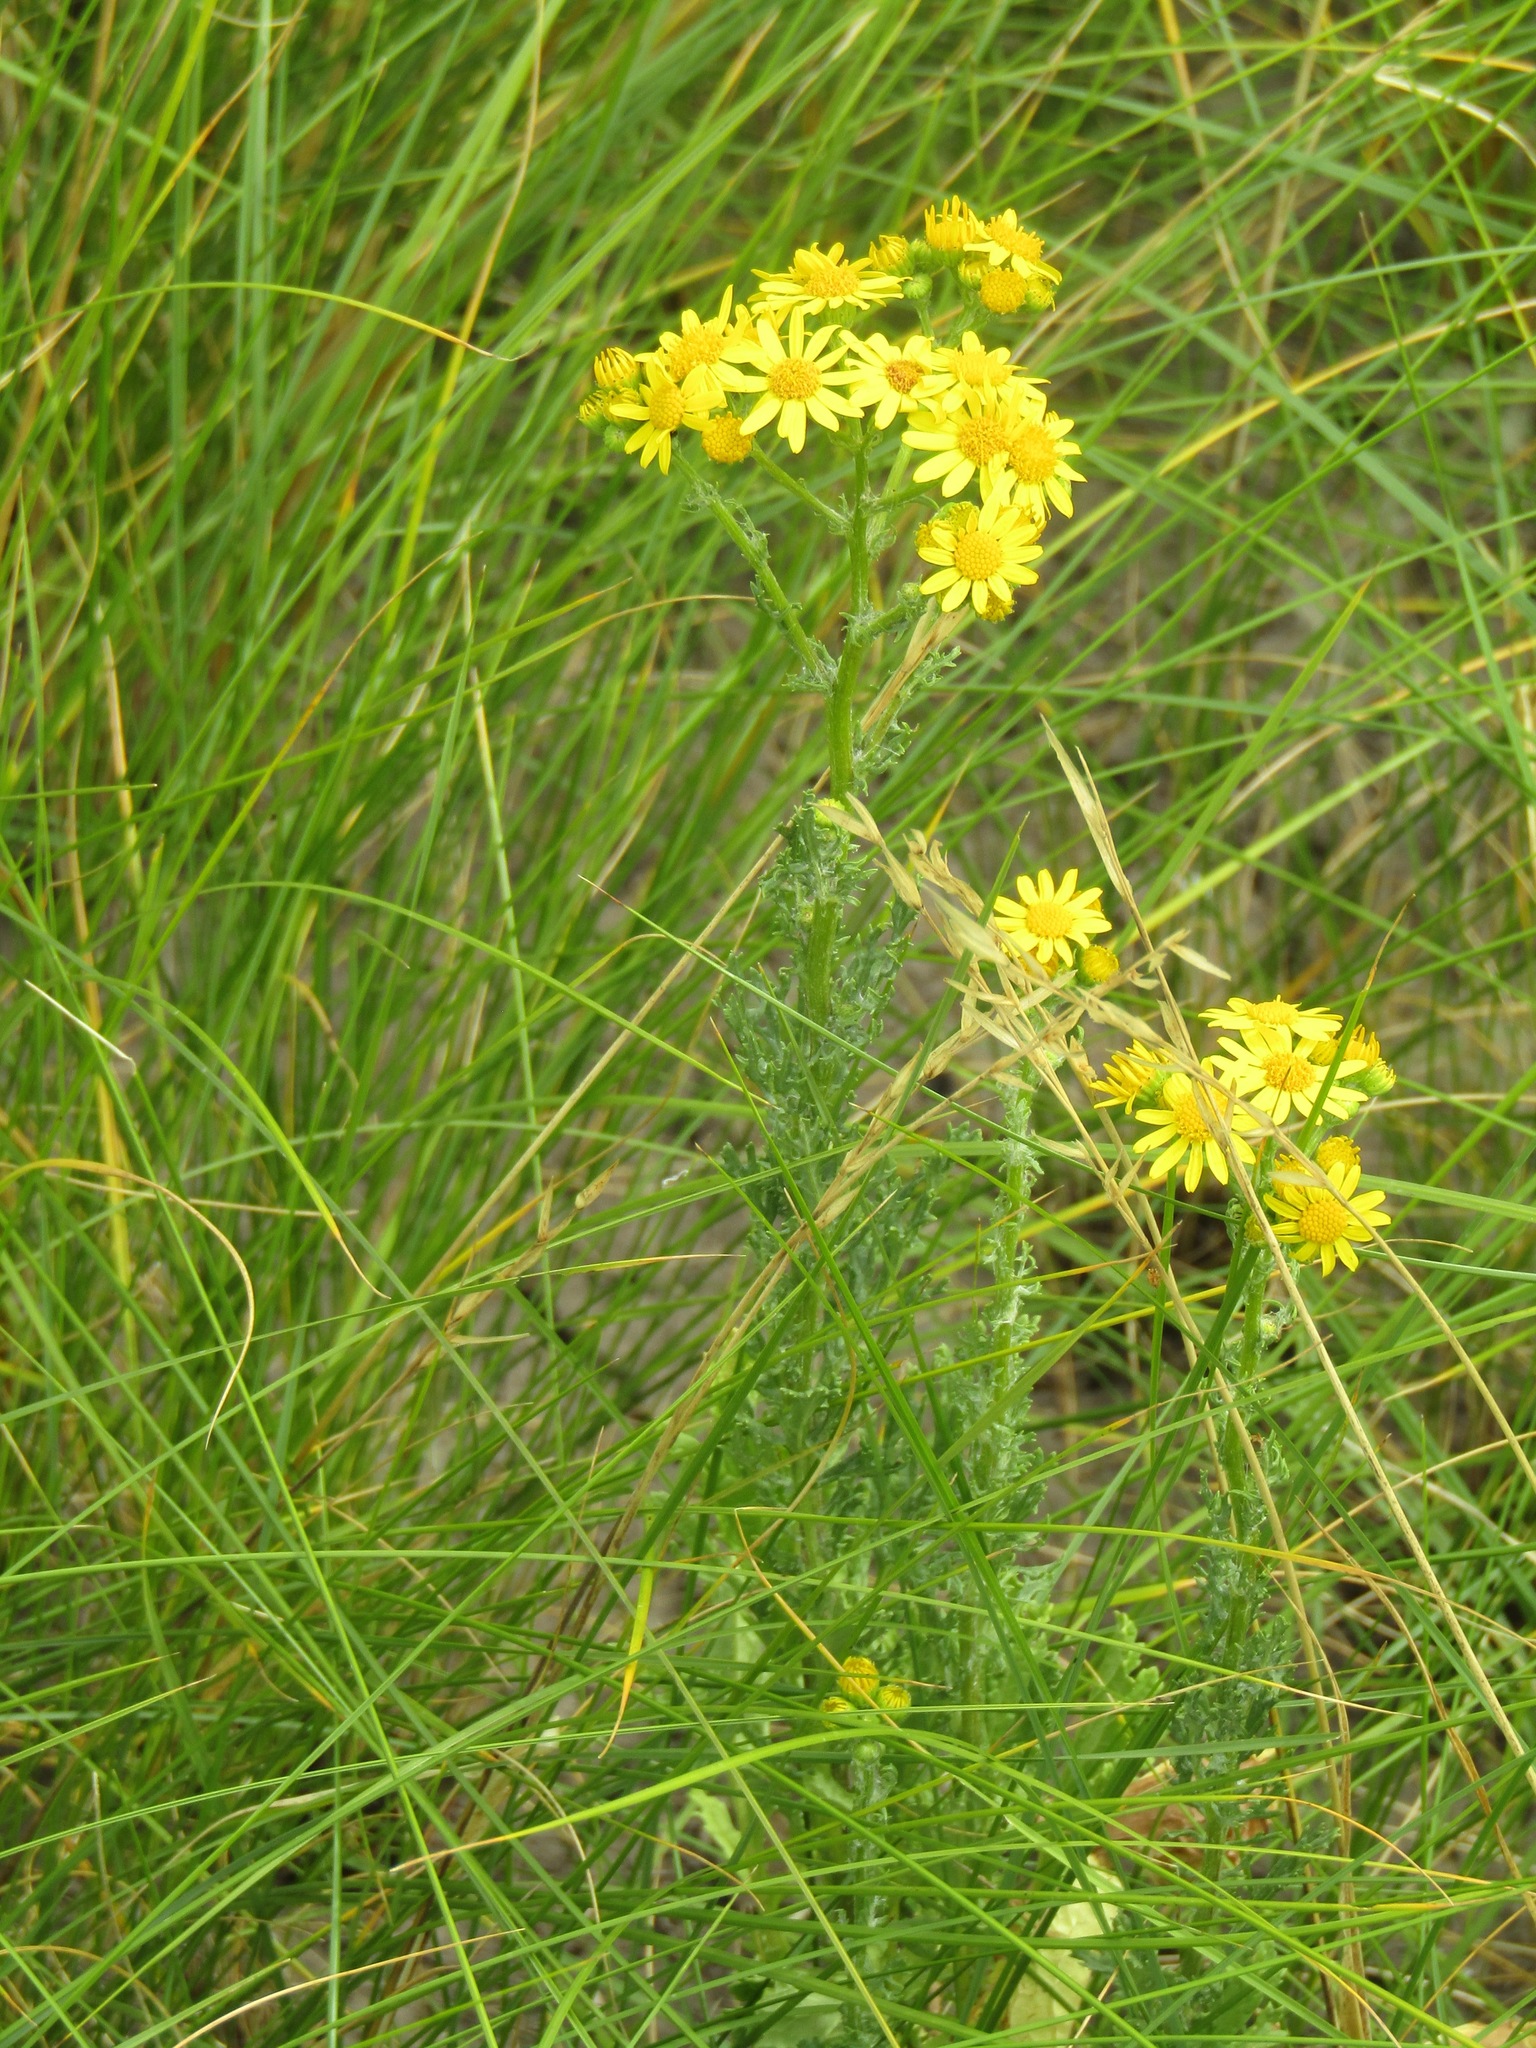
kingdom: Plantae
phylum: Tracheophyta
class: Magnoliopsida
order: Asterales
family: Asteraceae
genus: Jacobaea
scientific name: Jacobaea vulgaris
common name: Stinking willie
